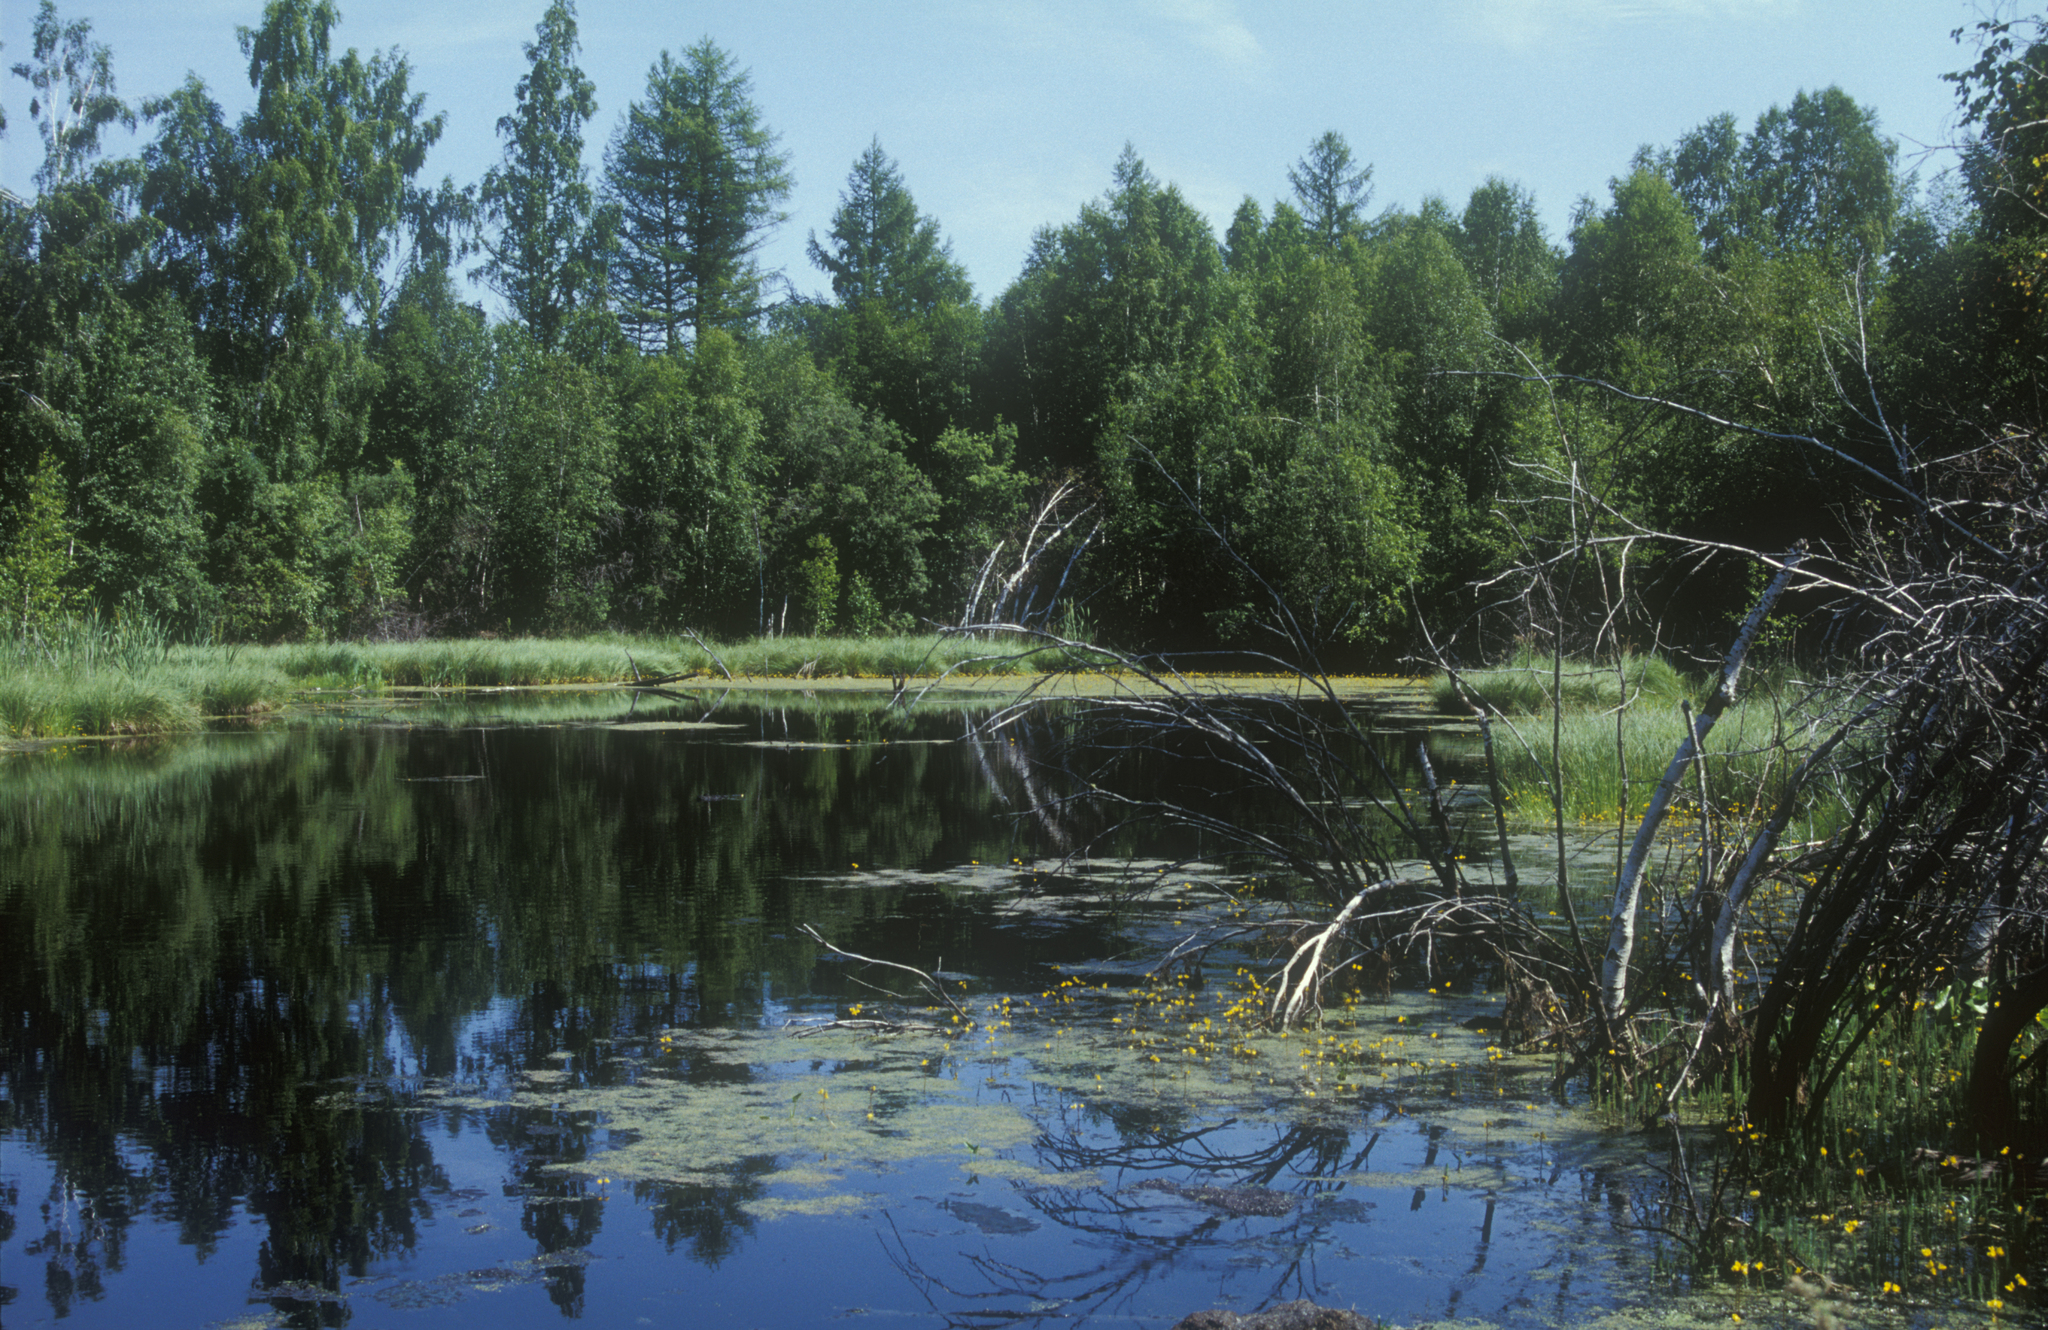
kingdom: Plantae
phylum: Tracheophyta
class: Pinopsida
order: Pinales
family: Pinaceae
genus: Larix
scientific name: Larix sibirica
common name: Siberian larch
